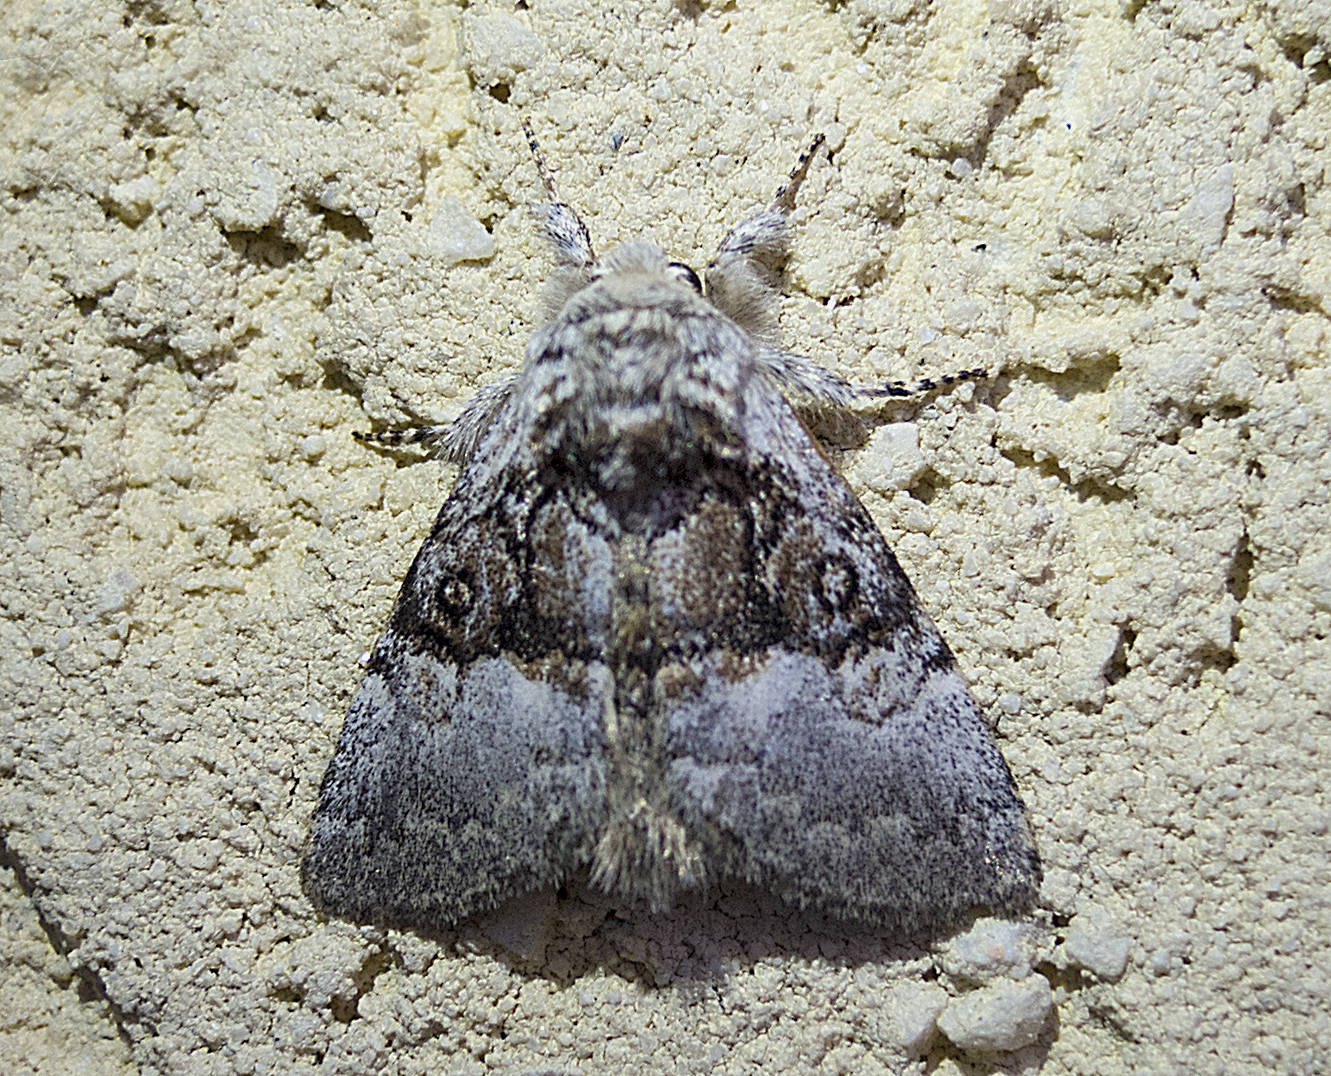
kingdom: Animalia
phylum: Arthropoda
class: Insecta
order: Lepidoptera
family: Noctuidae
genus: Colocasia
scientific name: Colocasia coryli
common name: Nut-tree tussock
